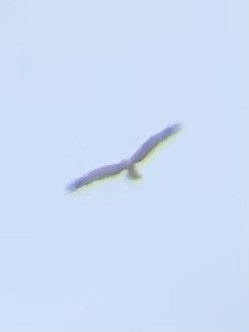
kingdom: Animalia
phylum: Chordata
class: Aves
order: Accipitriformes
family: Accipitridae
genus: Circus
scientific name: Circus aeruginosus
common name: Western marsh harrier
